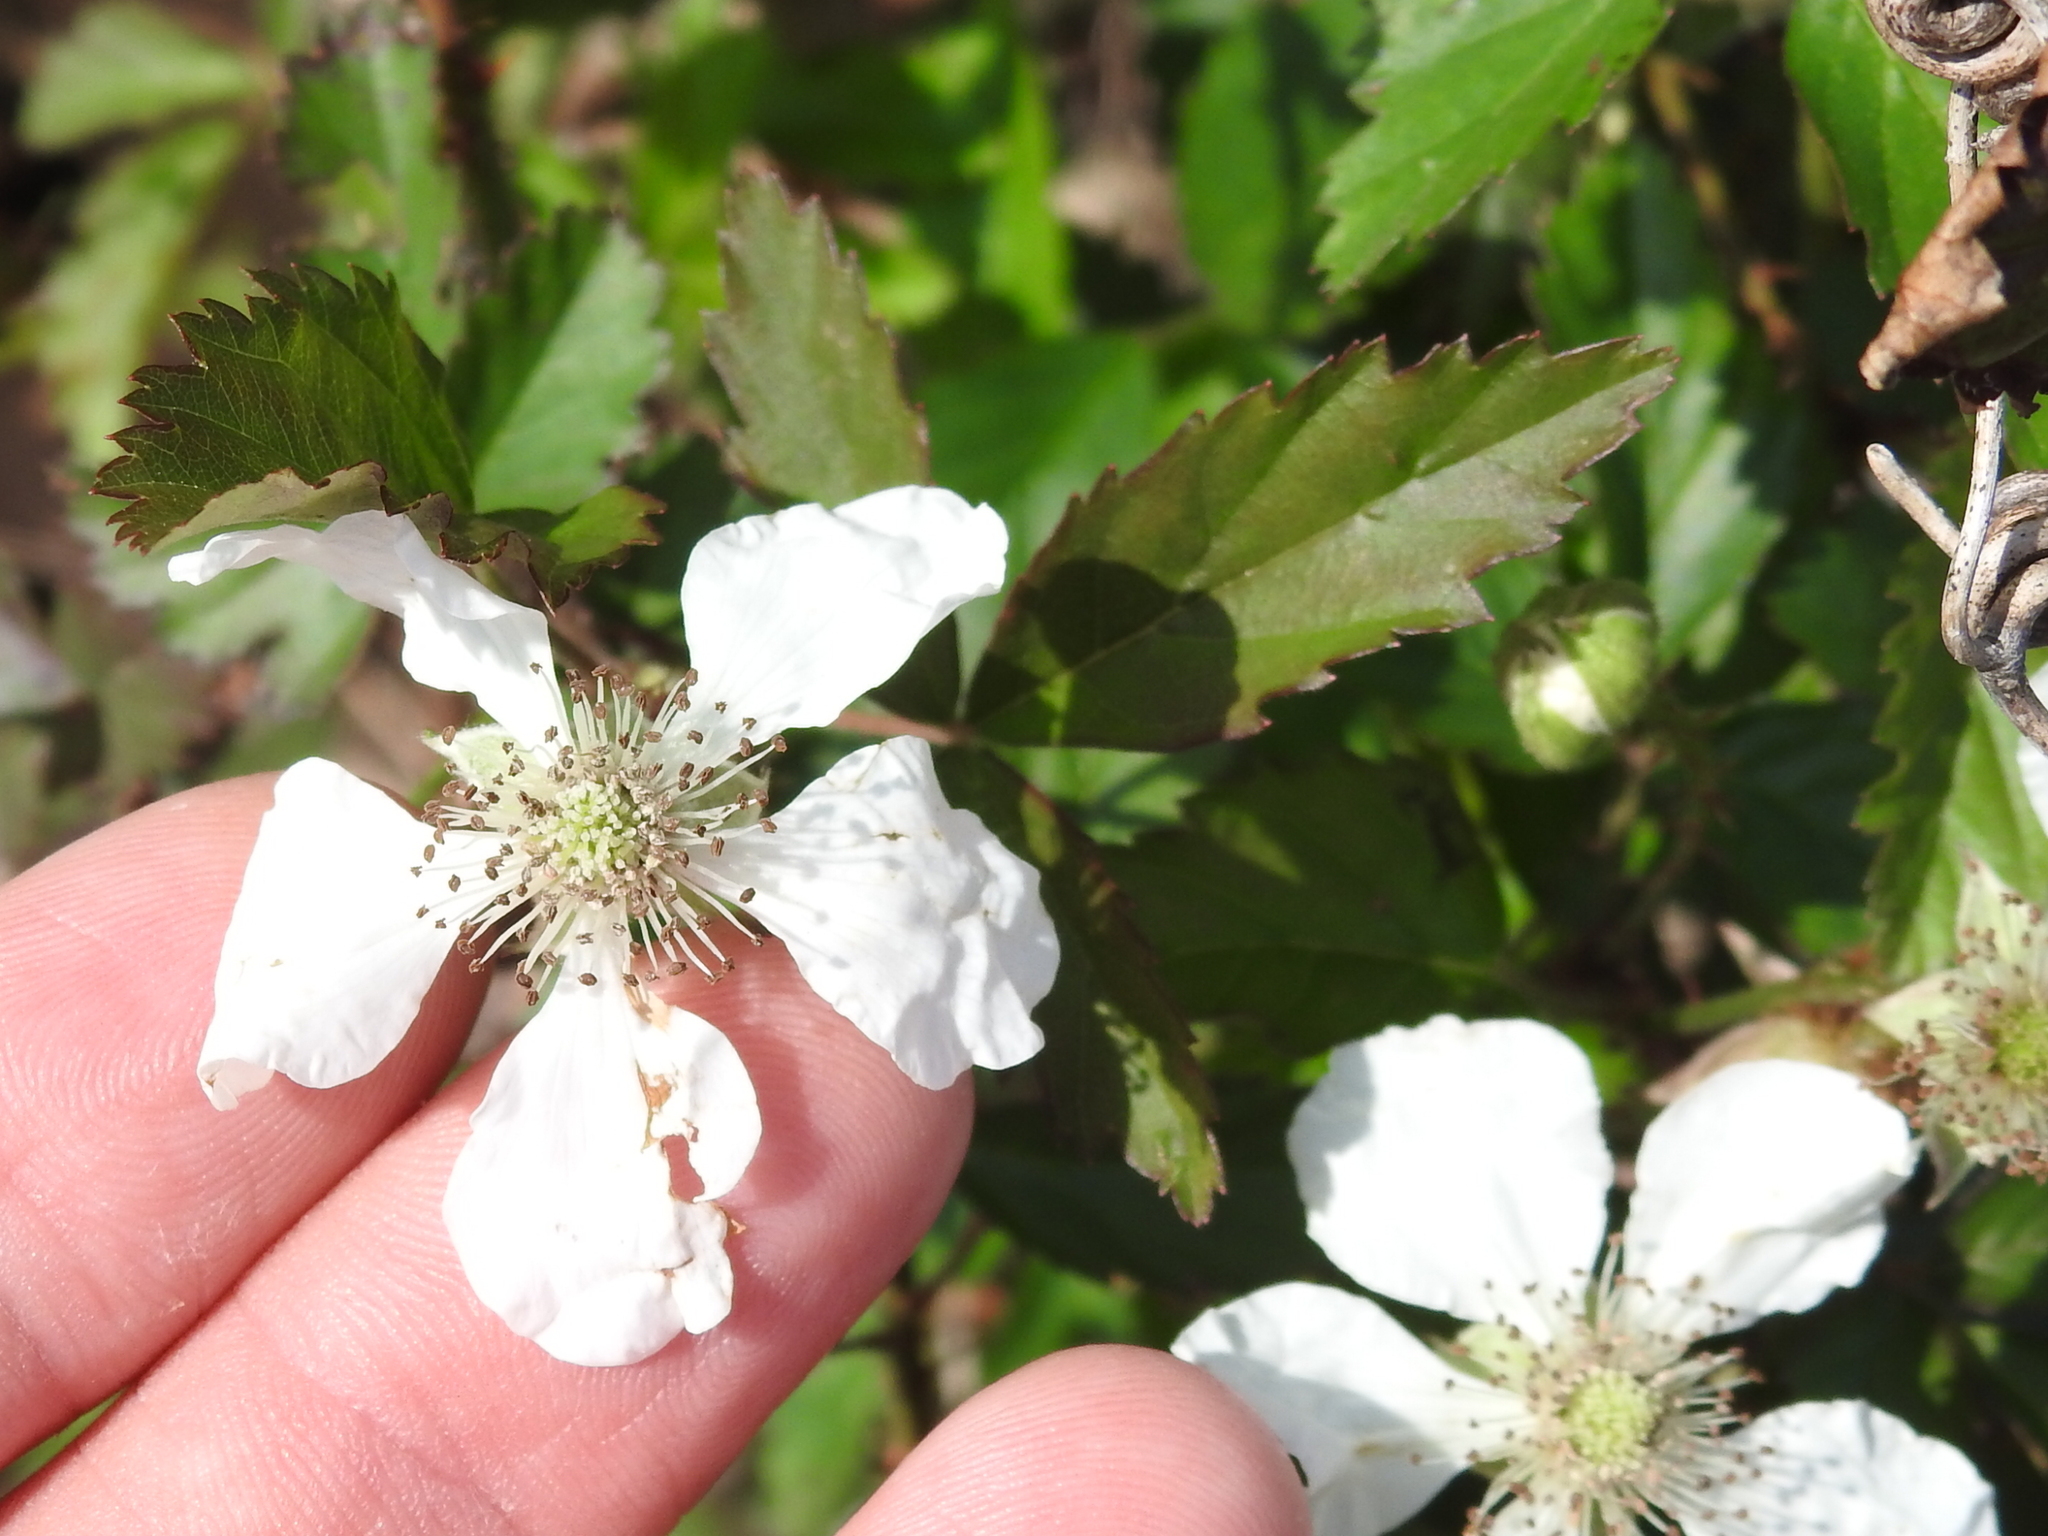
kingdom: Plantae
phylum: Tracheophyta
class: Magnoliopsida
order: Rosales
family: Rosaceae
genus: Rubus
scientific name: Rubus trivialis
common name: Southern dewberry
